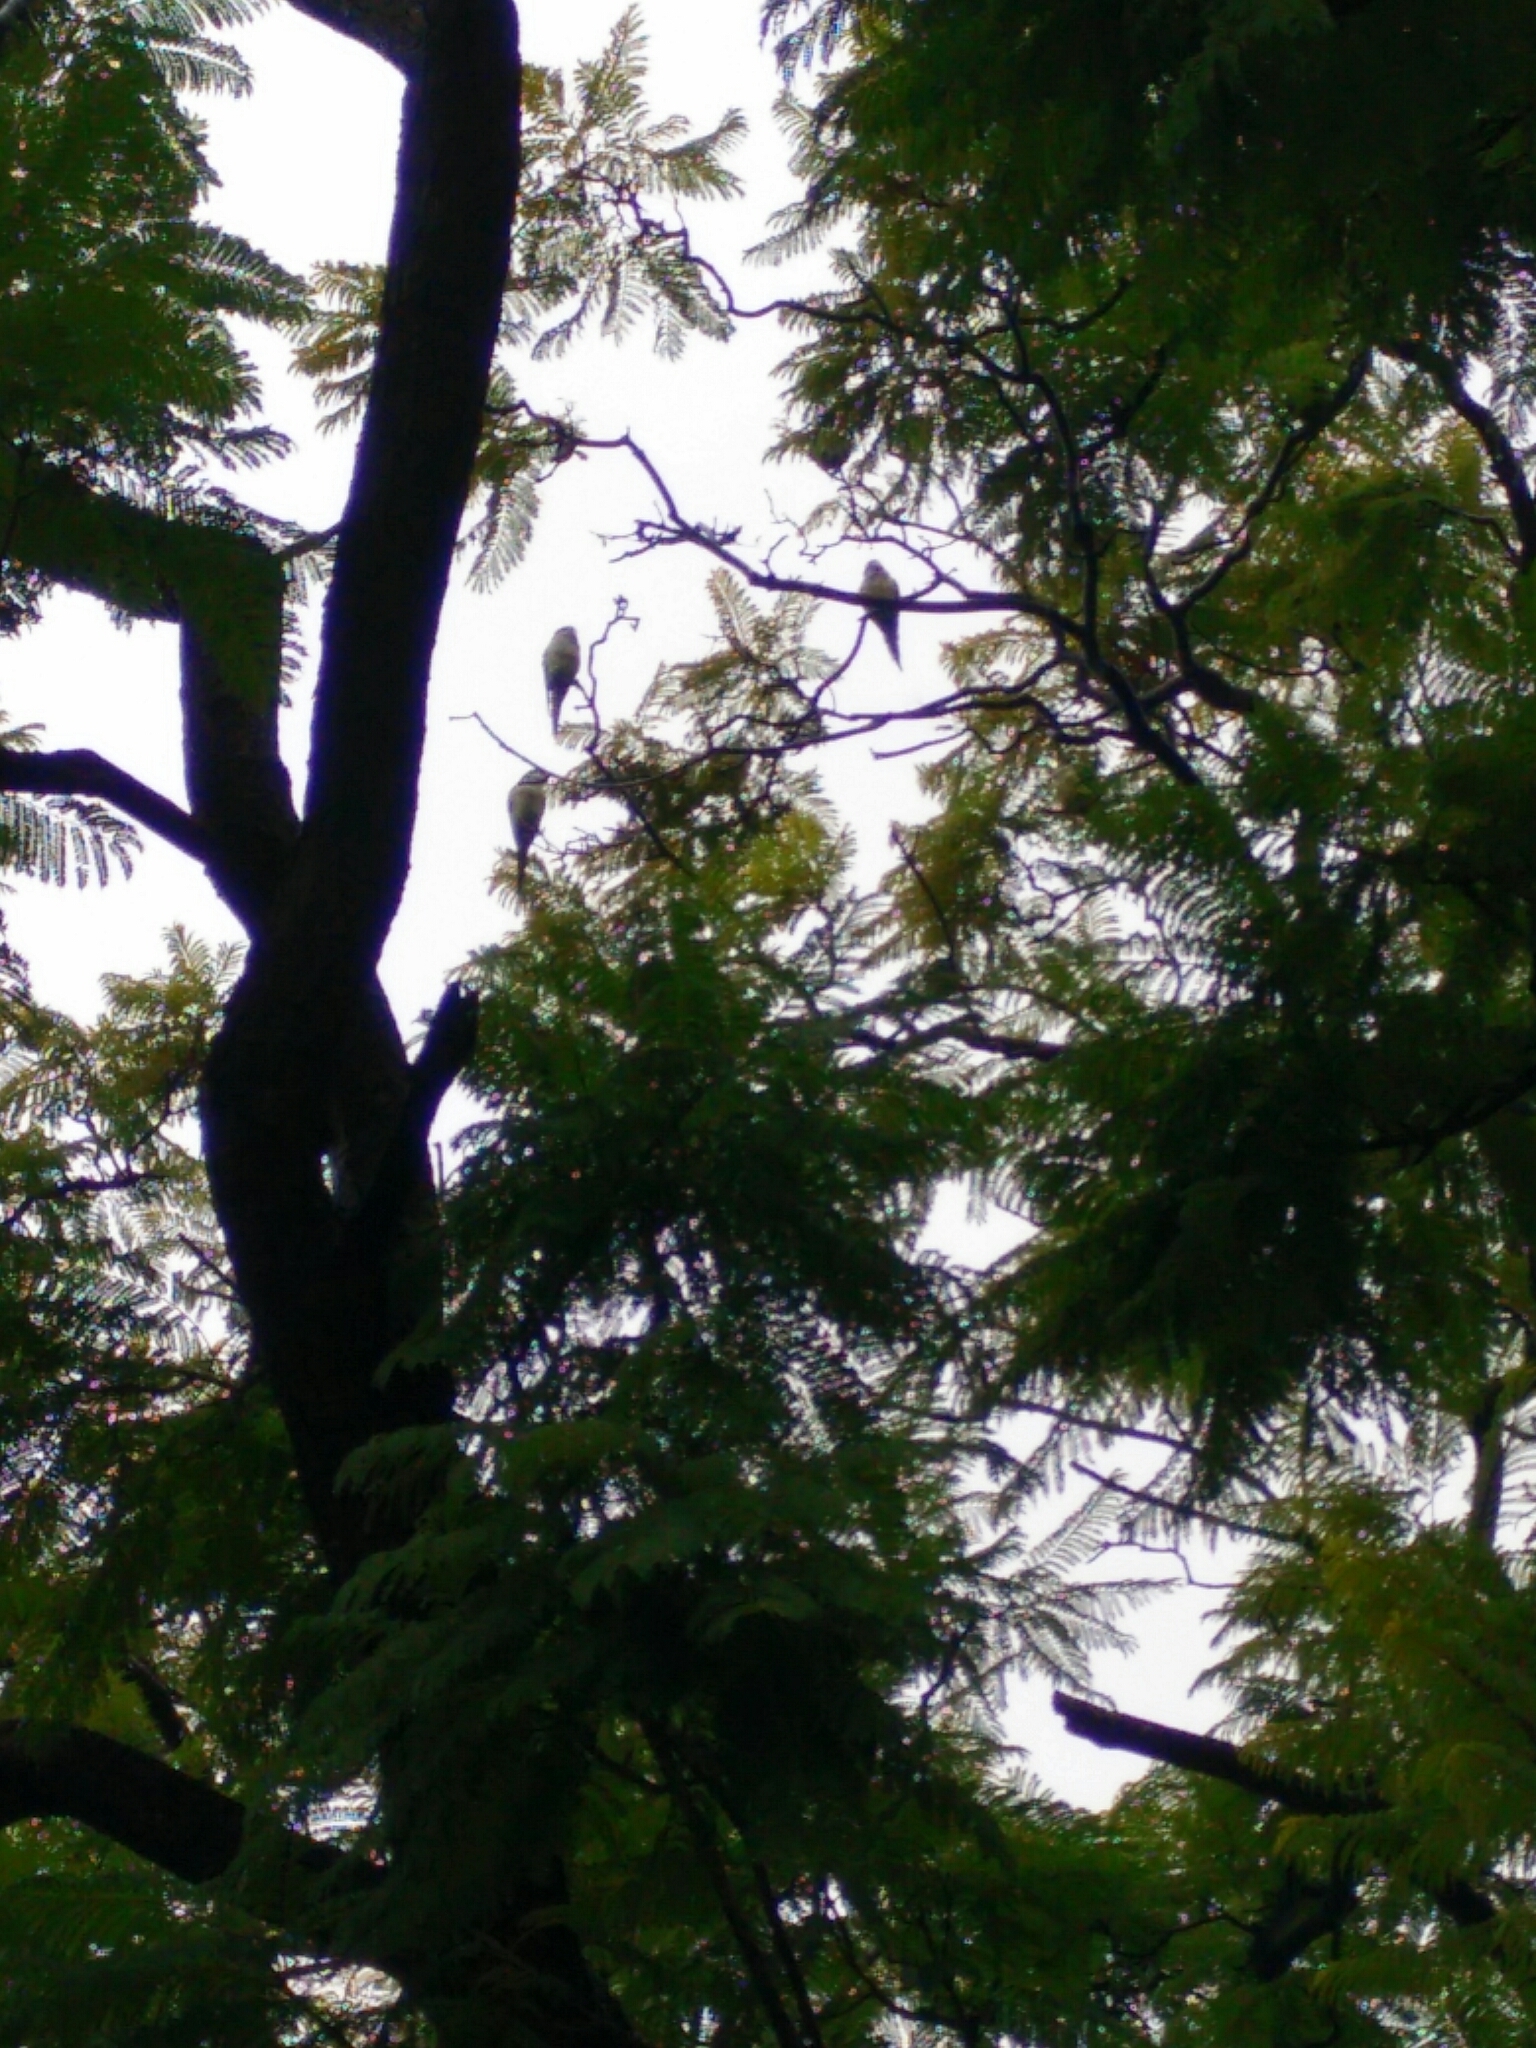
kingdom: Animalia
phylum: Chordata
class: Aves
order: Psittaciformes
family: Psittacidae
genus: Myiopsitta
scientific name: Myiopsitta monachus
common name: Monk parakeet
